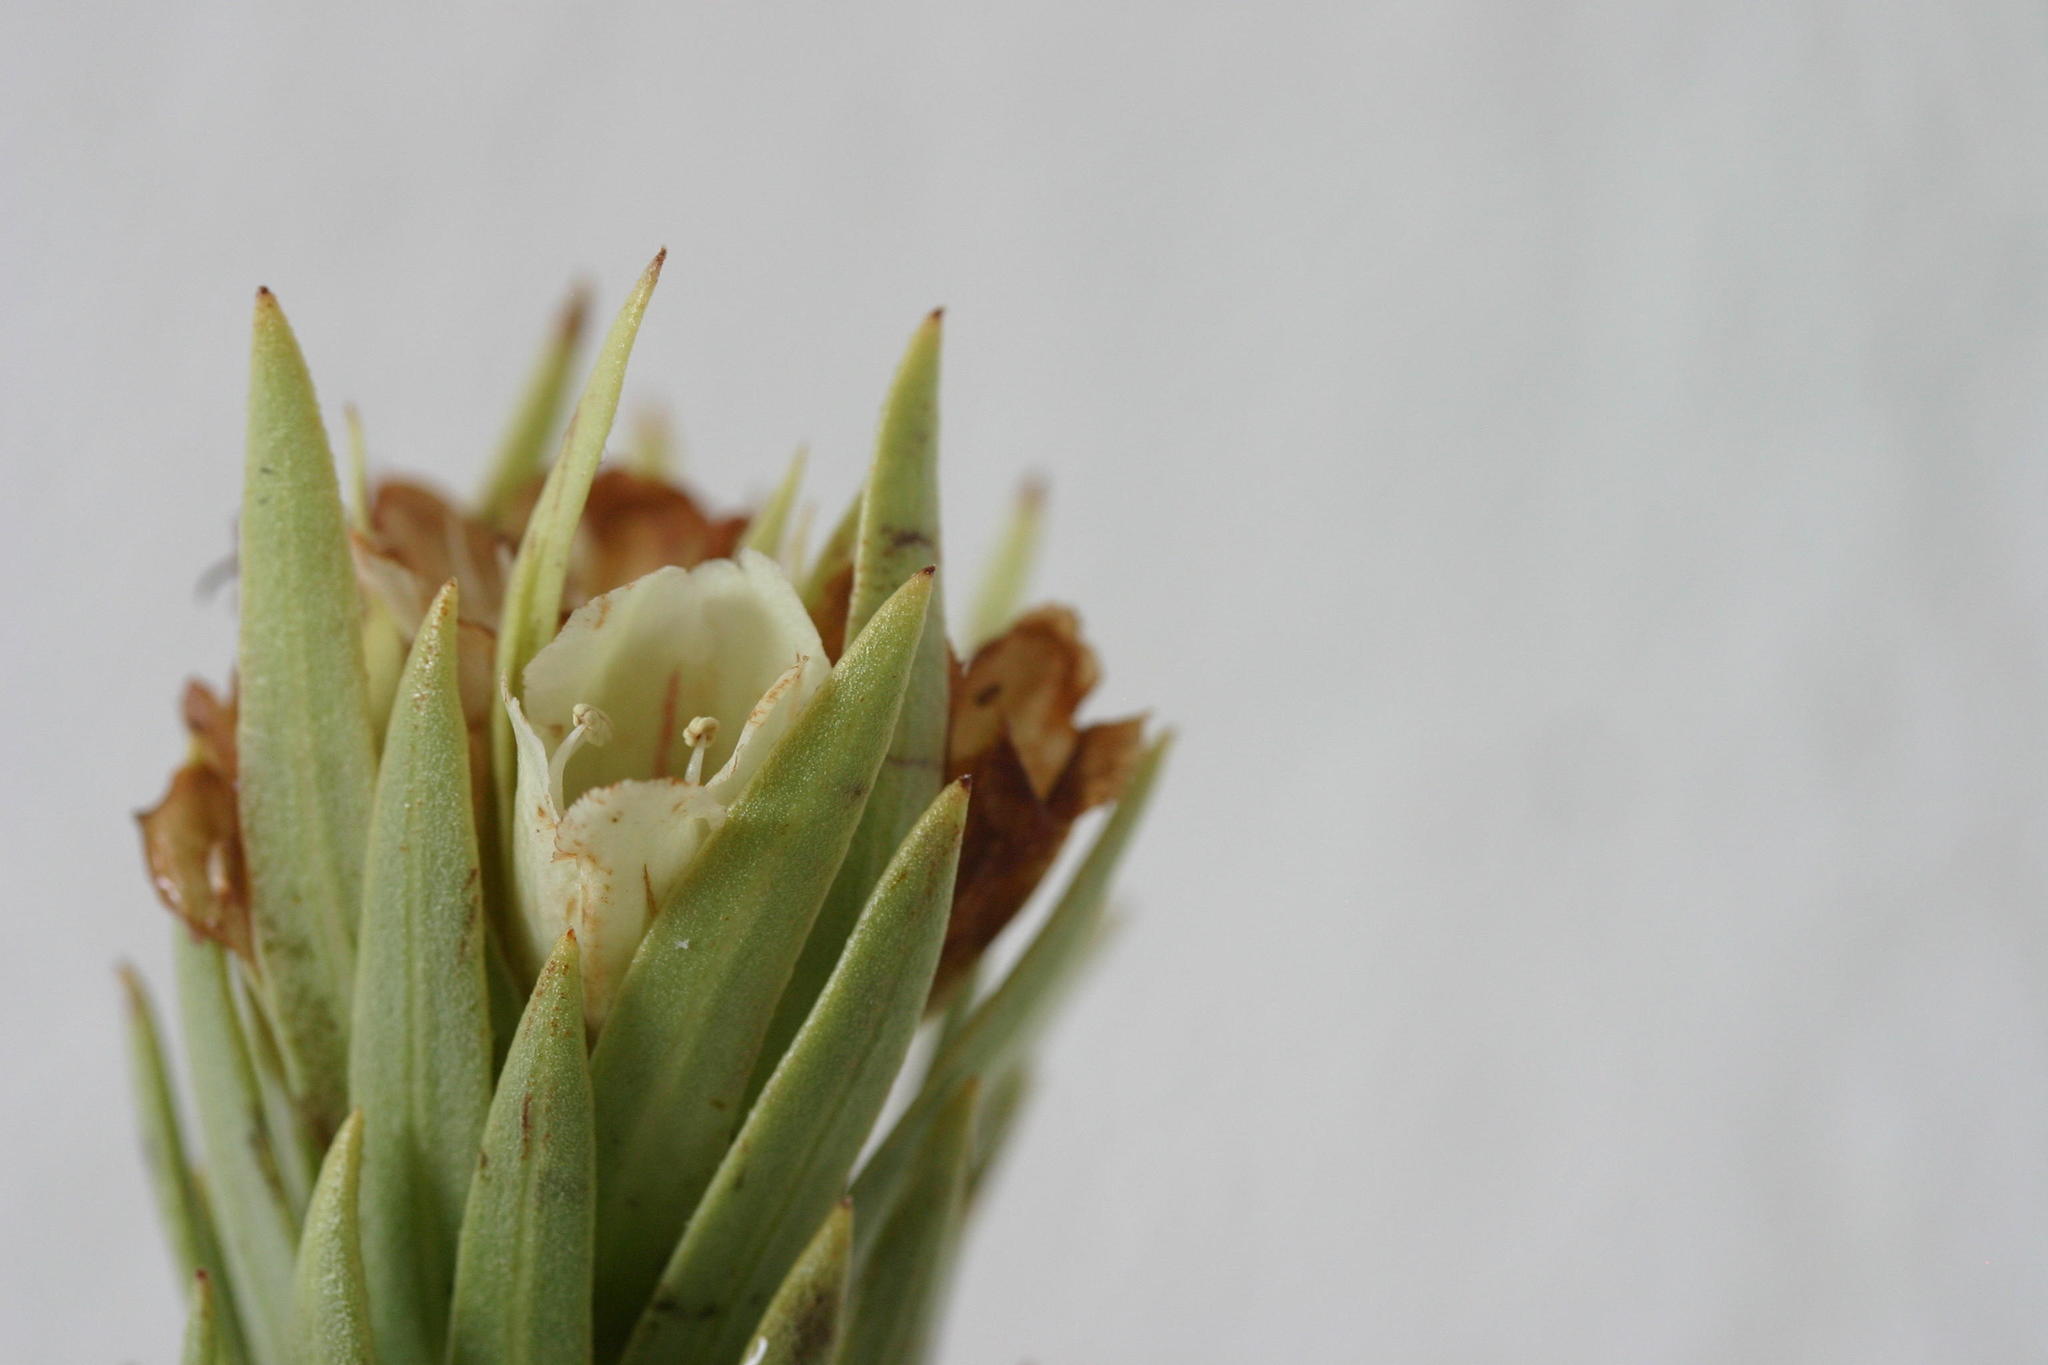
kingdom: Plantae
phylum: Tracheophyta
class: Magnoliopsida
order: Boraginales
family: Boraginaceae
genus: Lobostemon
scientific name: Lobostemon muirii
